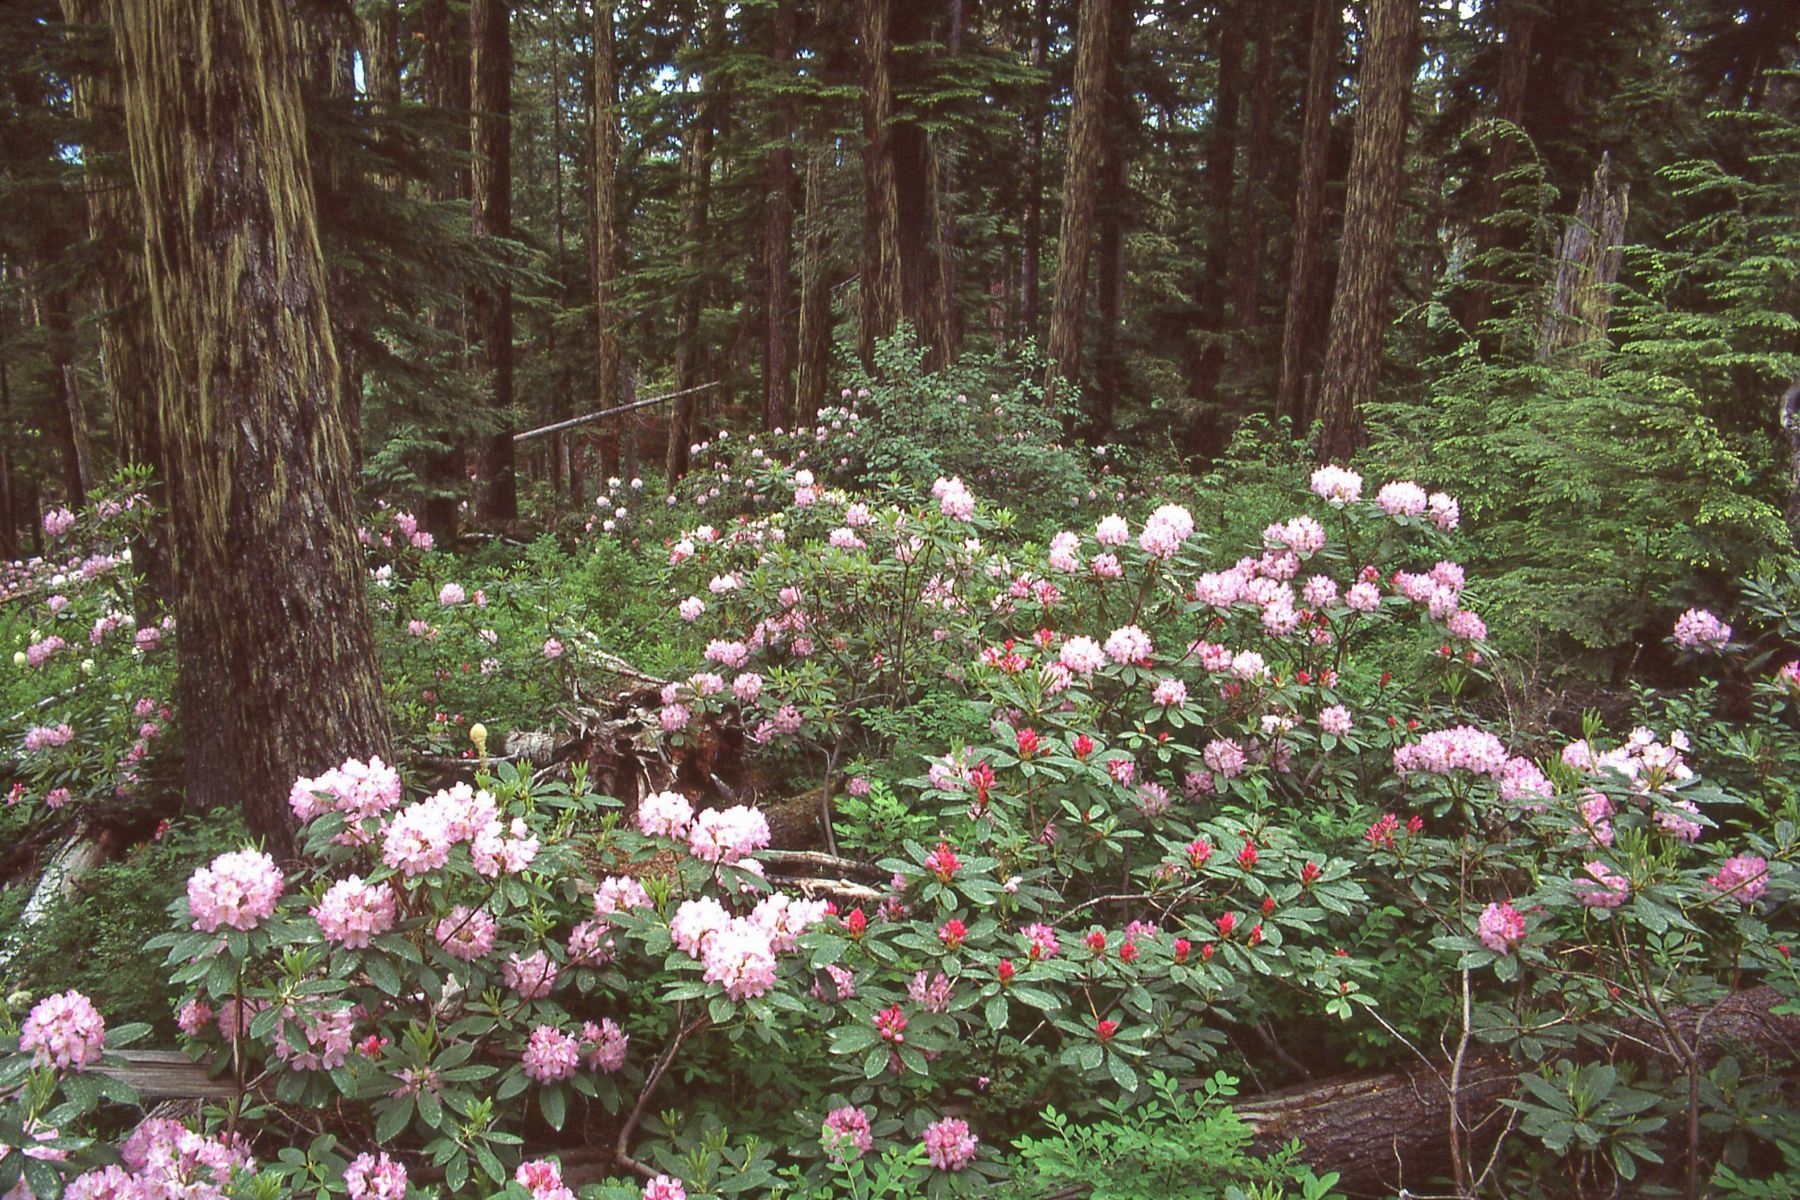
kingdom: Plantae
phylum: Tracheophyta
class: Magnoliopsida
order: Ericales
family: Ericaceae
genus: Rhododendron
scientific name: Rhododendron macrophyllum
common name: California rose bay
